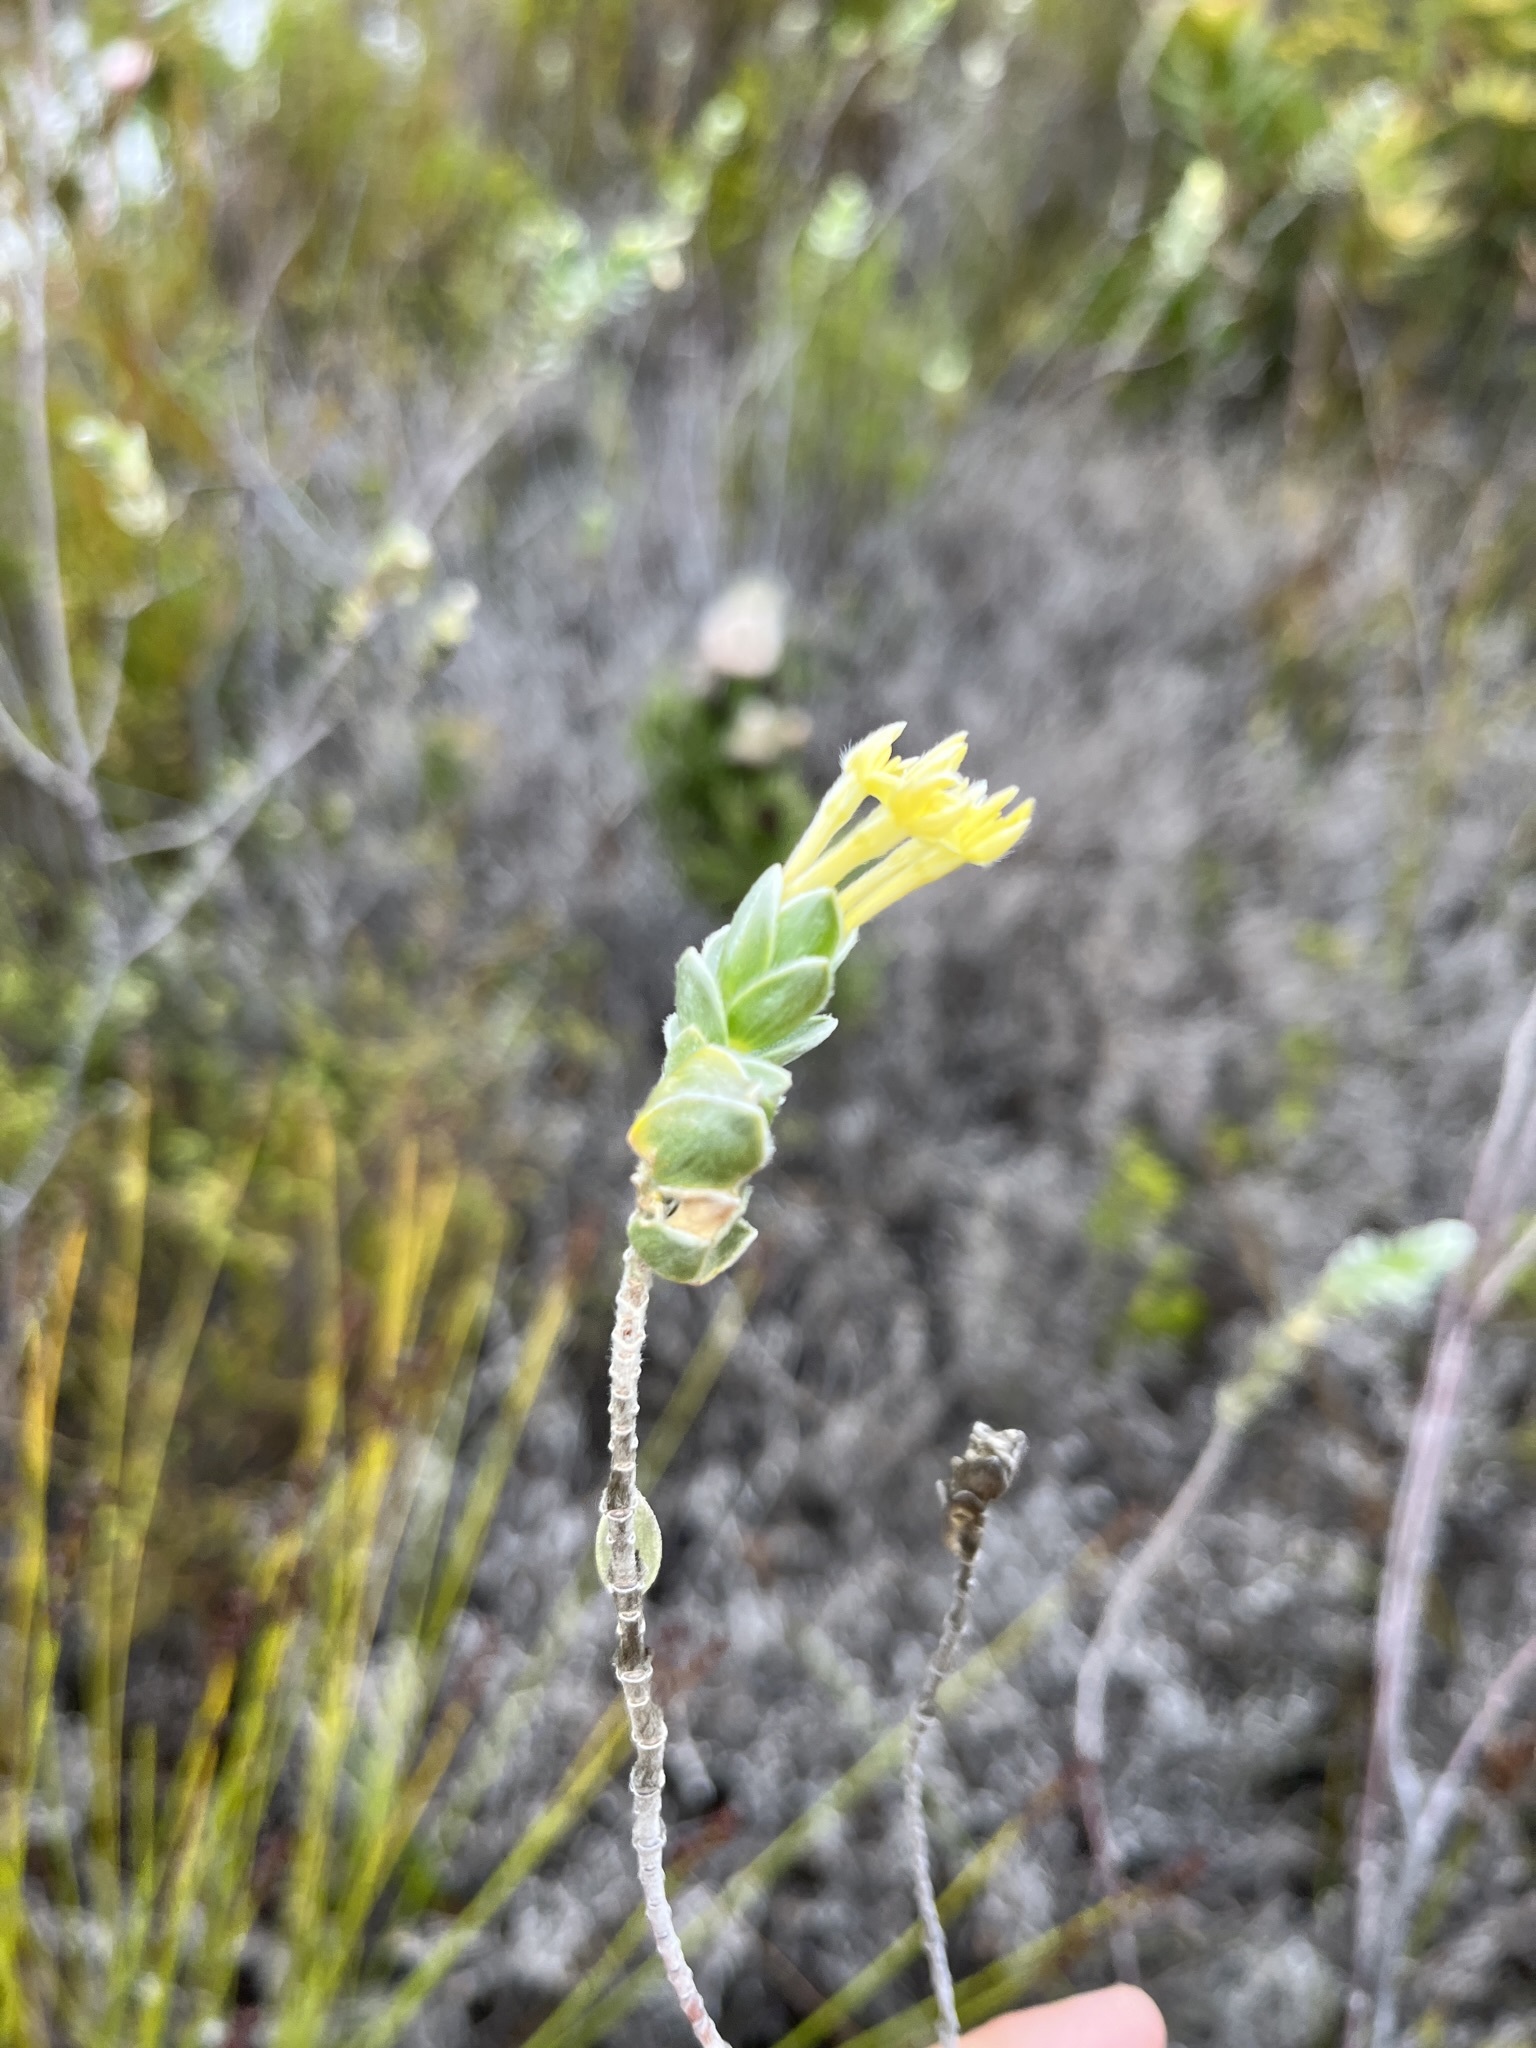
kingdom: Plantae
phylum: Tracheophyta
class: Magnoliopsida
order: Malvales
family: Thymelaeaceae
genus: Gnidia
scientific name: Gnidia anomala
